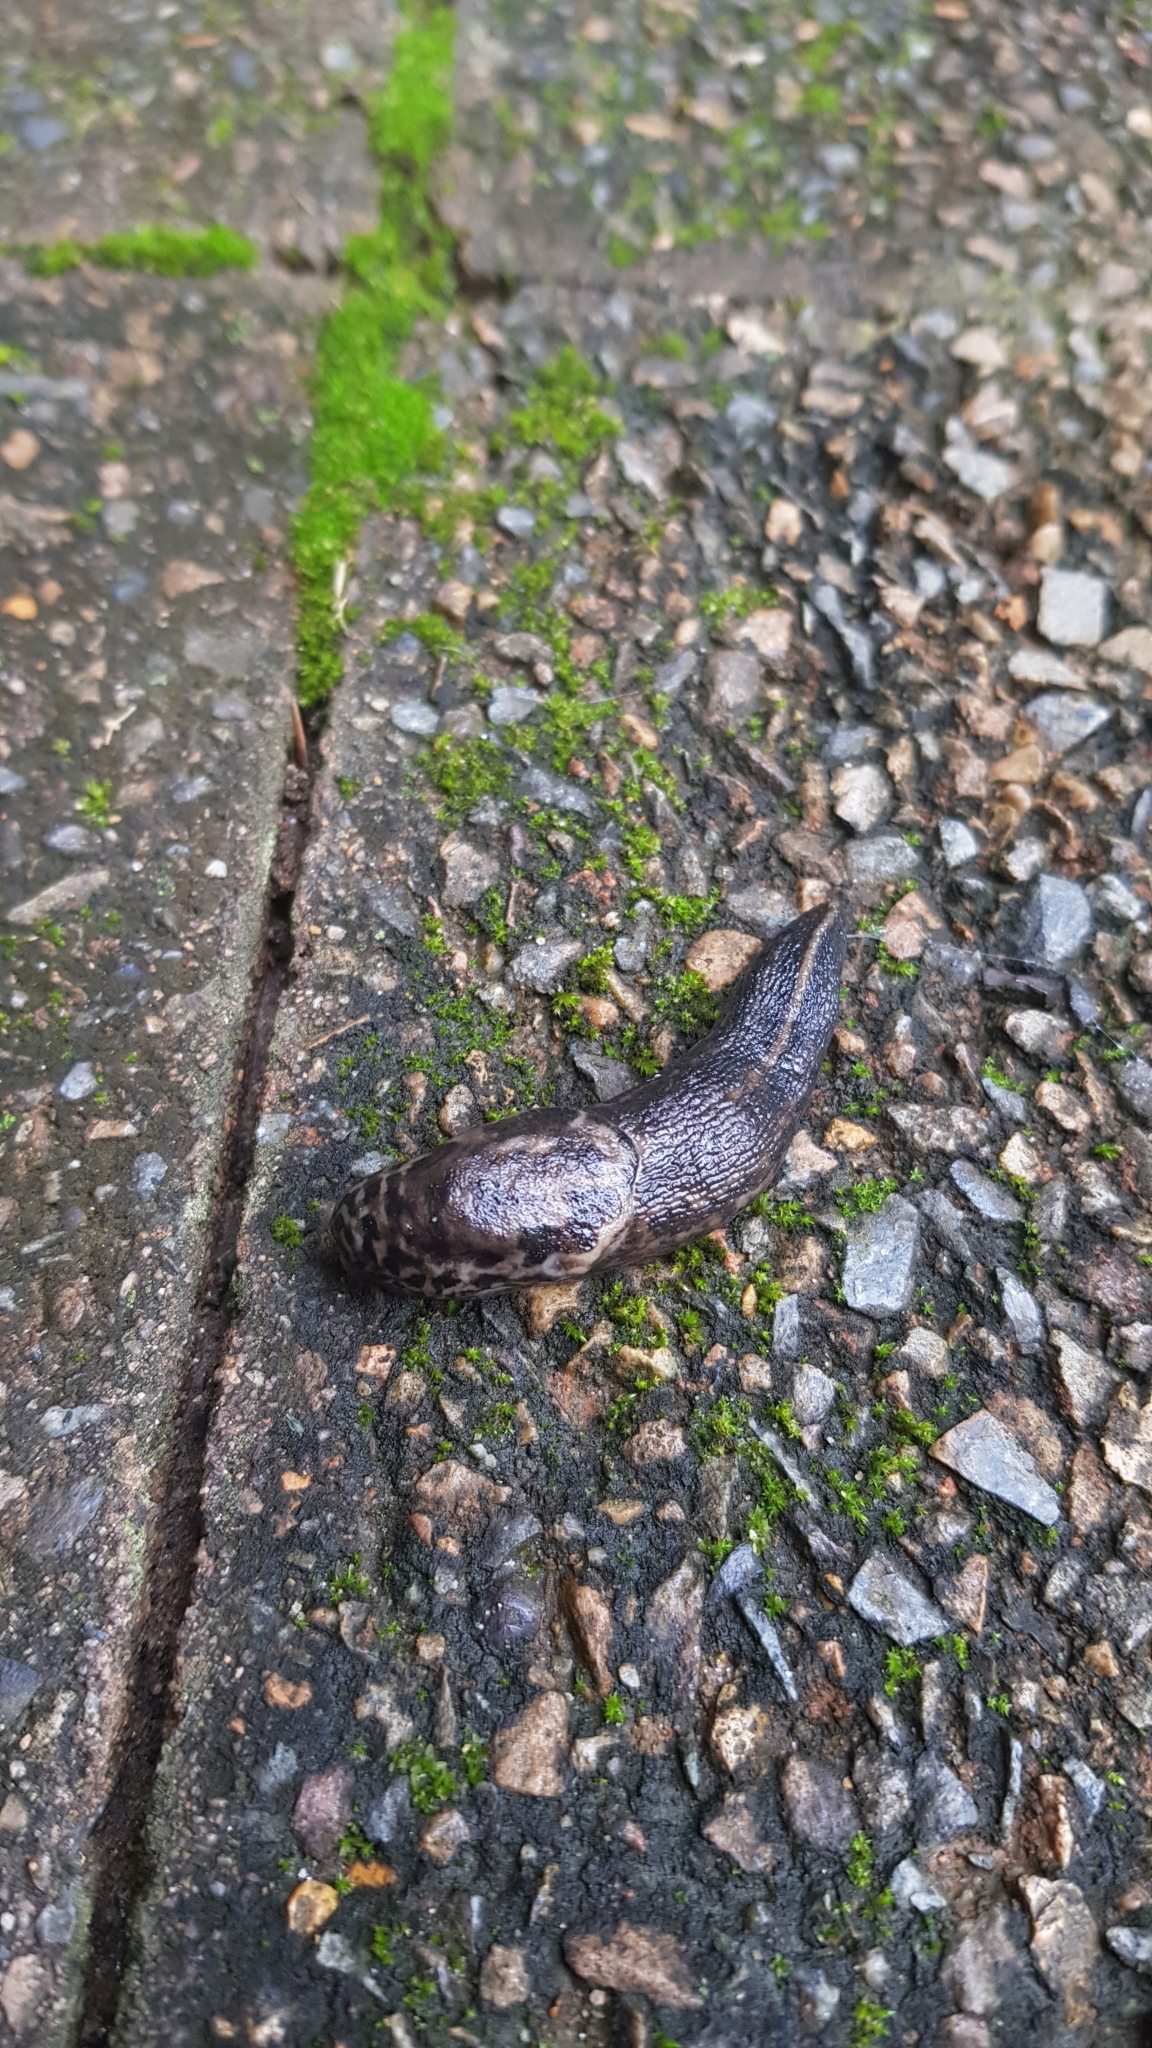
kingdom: Animalia
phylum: Mollusca
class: Gastropoda
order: Stylommatophora
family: Limacidae
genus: Limax
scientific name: Limax maximus
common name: Great grey slug
